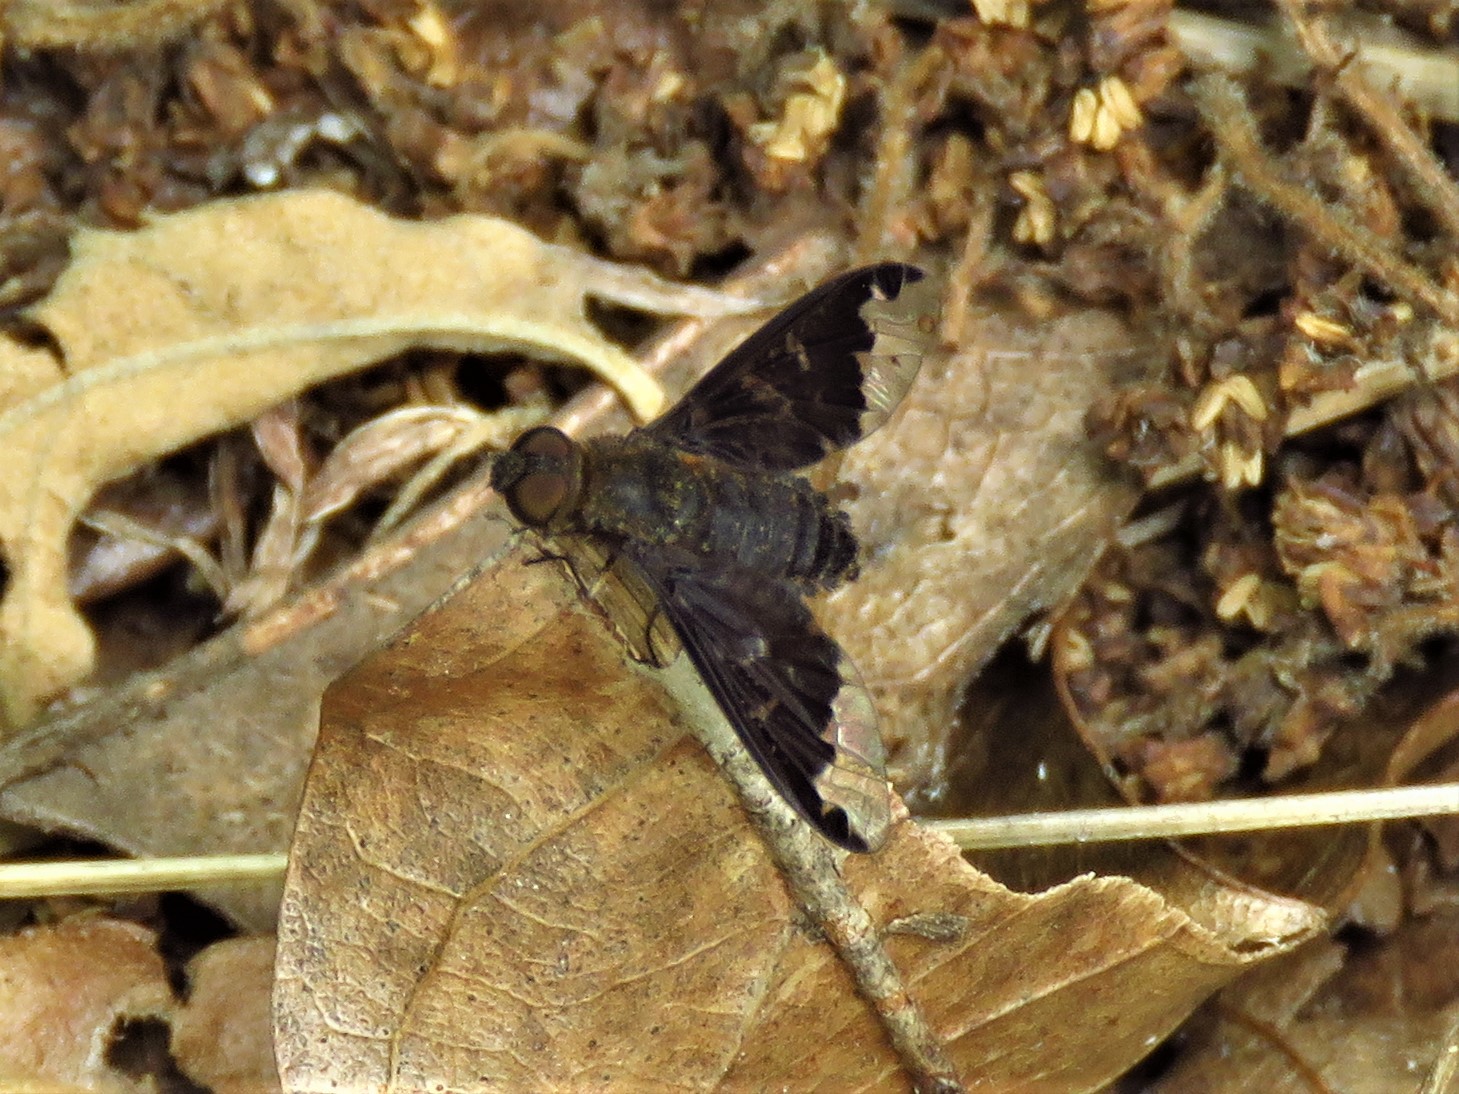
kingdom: Animalia
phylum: Arthropoda
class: Insecta
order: Diptera
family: Bombyliidae
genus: Hemipenthes
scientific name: Hemipenthes sinuosus
